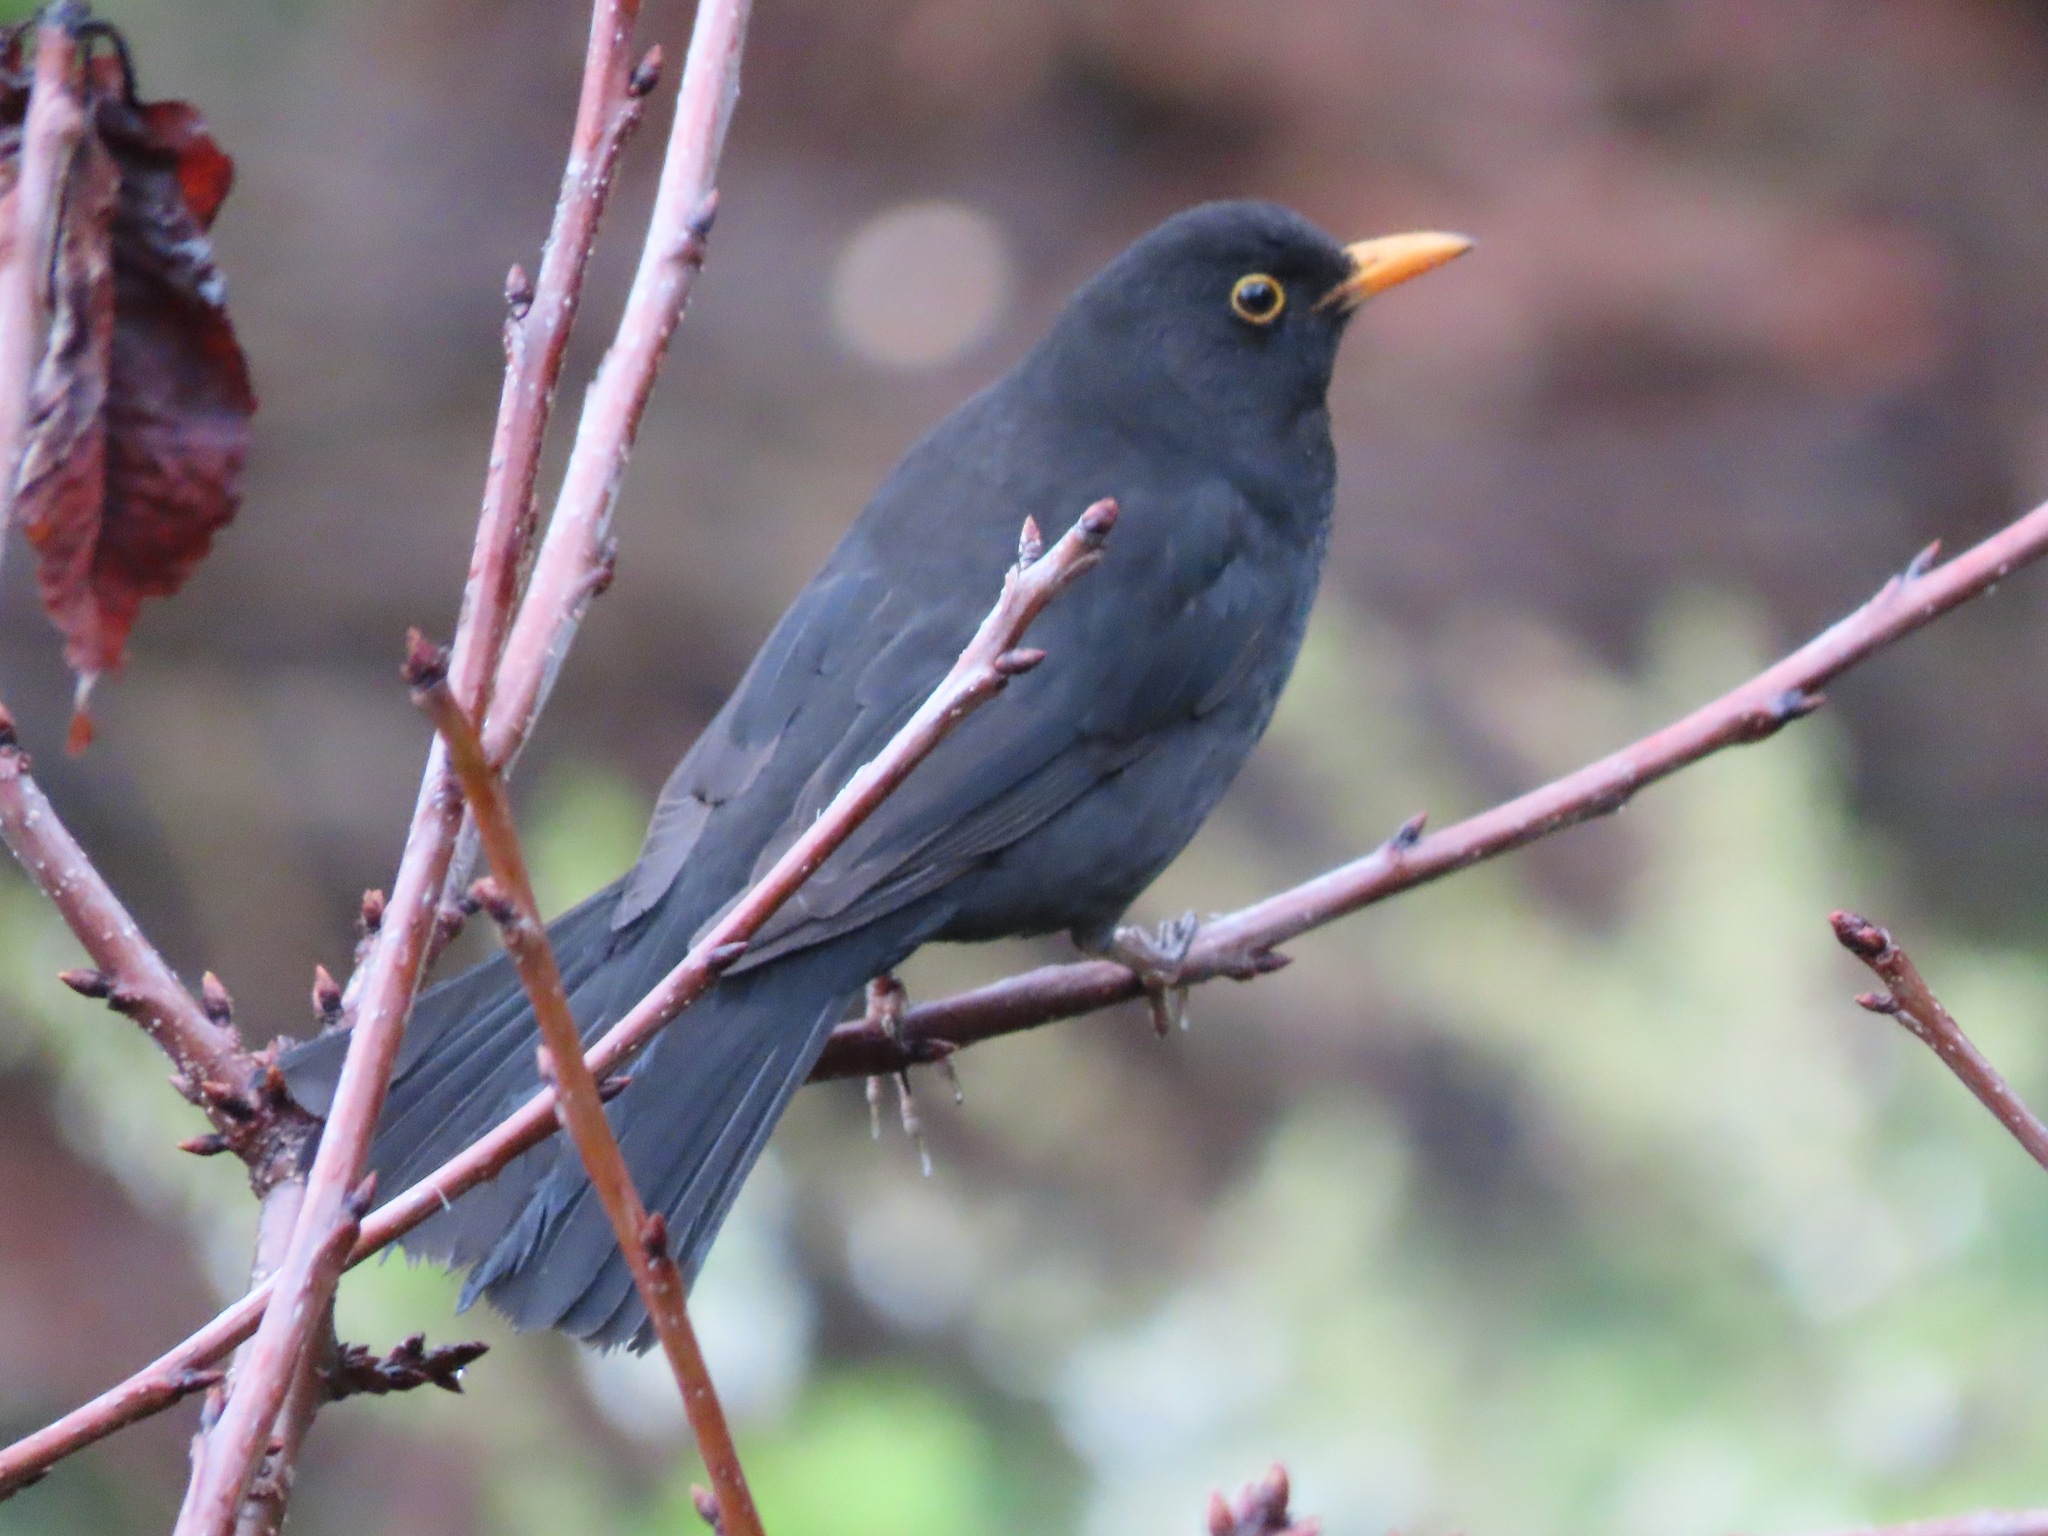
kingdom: Animalia
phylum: Chordata
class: Aves
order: Passeriformes
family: Turdidae
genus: Turdus
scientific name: Turdus merula
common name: Common blackbird
